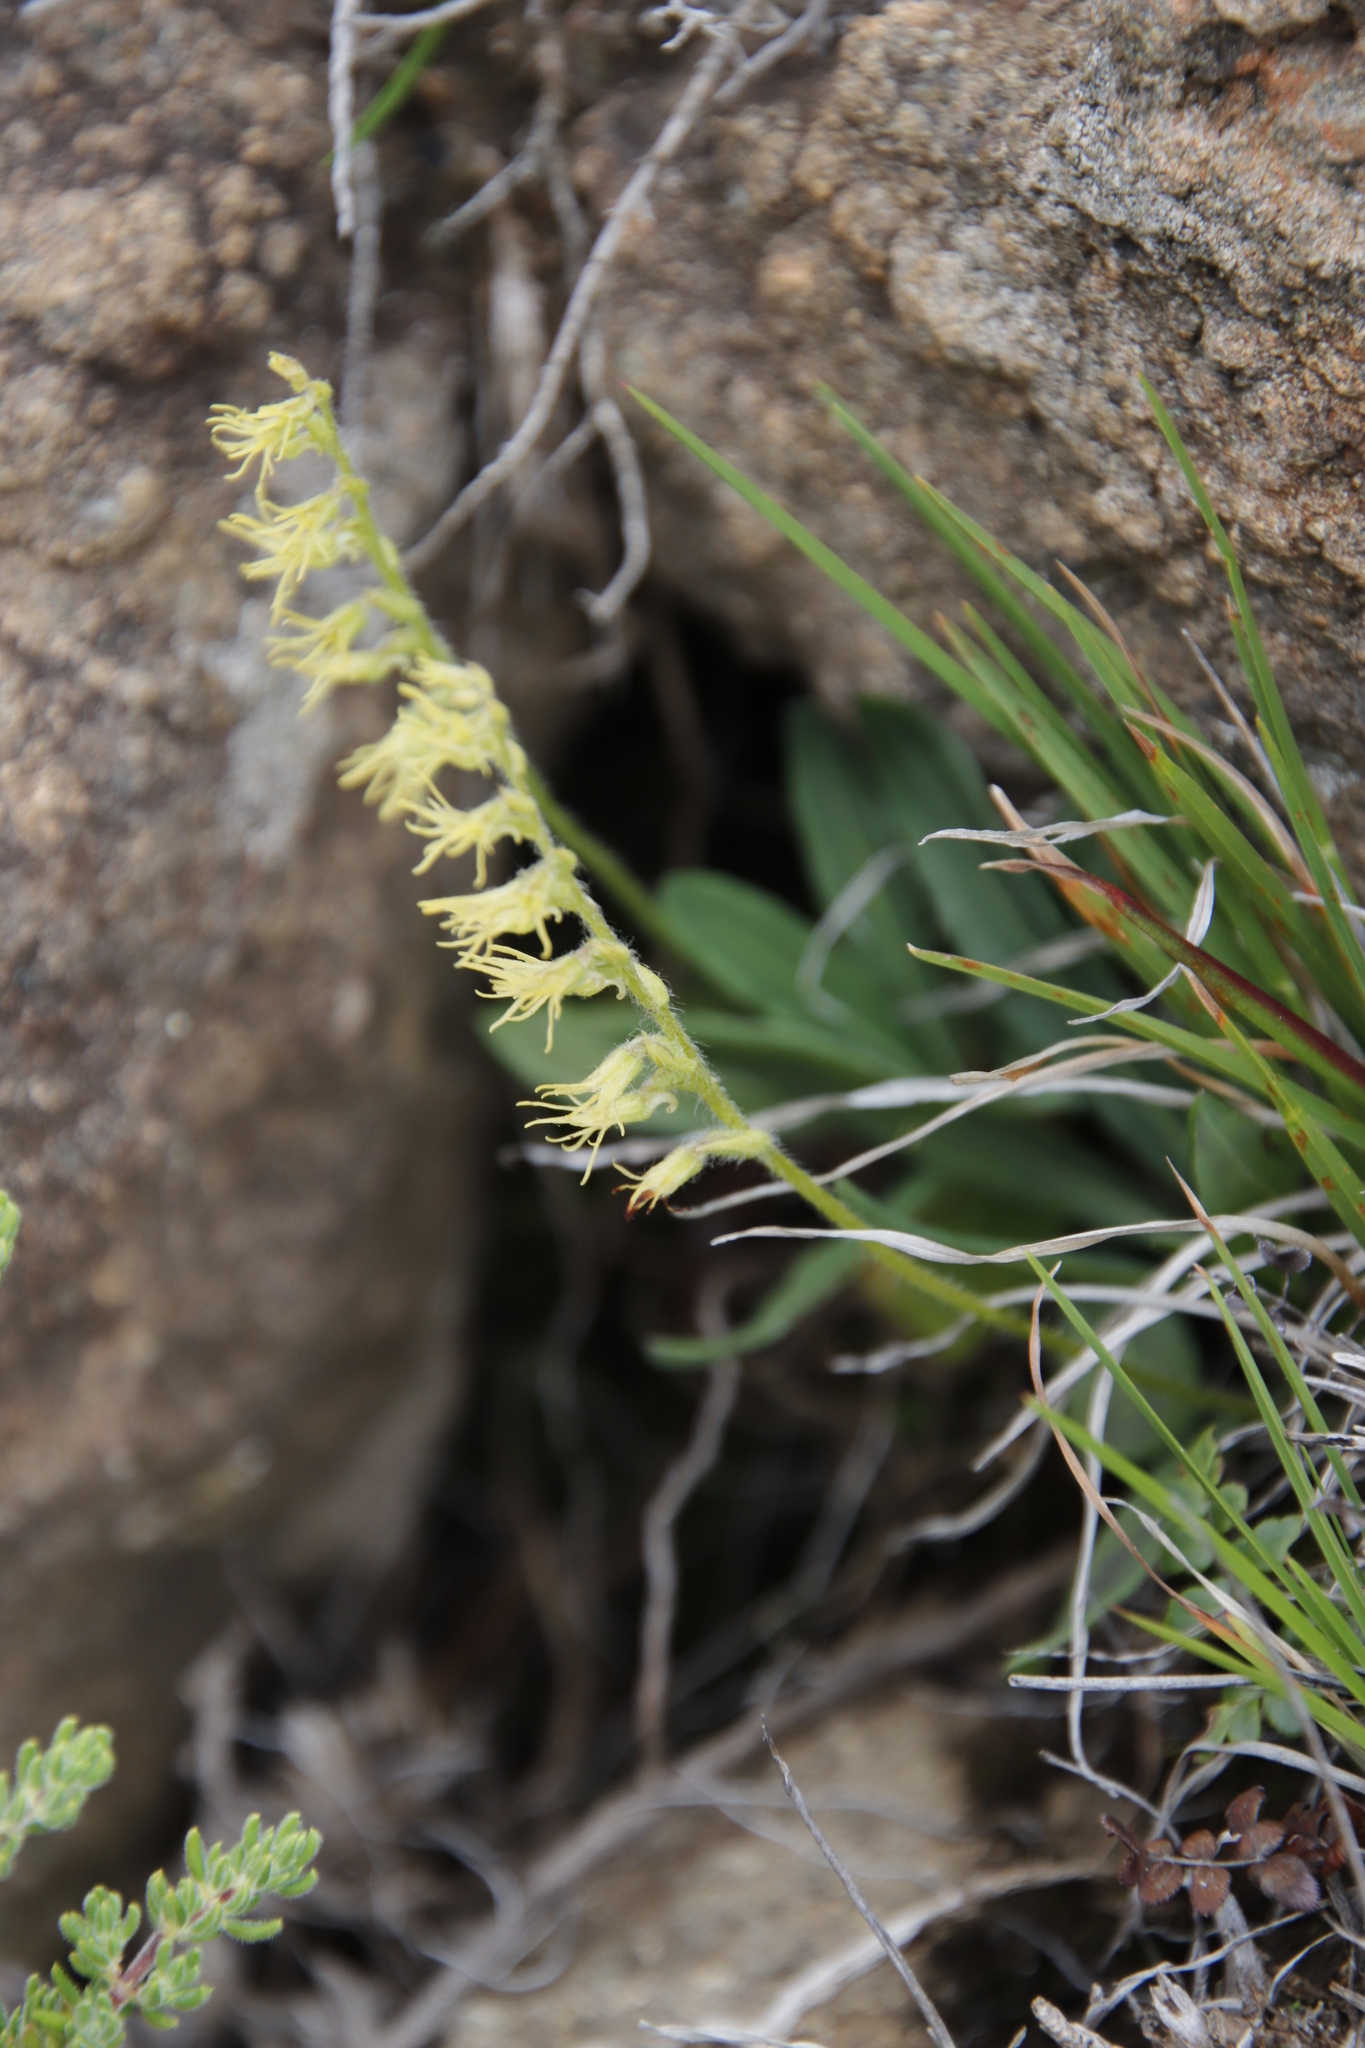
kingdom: Plantae
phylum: Tracheophyta
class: Liliopsida
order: Asparagales
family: Orchidaceae
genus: Holothrix
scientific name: Holothrix incurva
